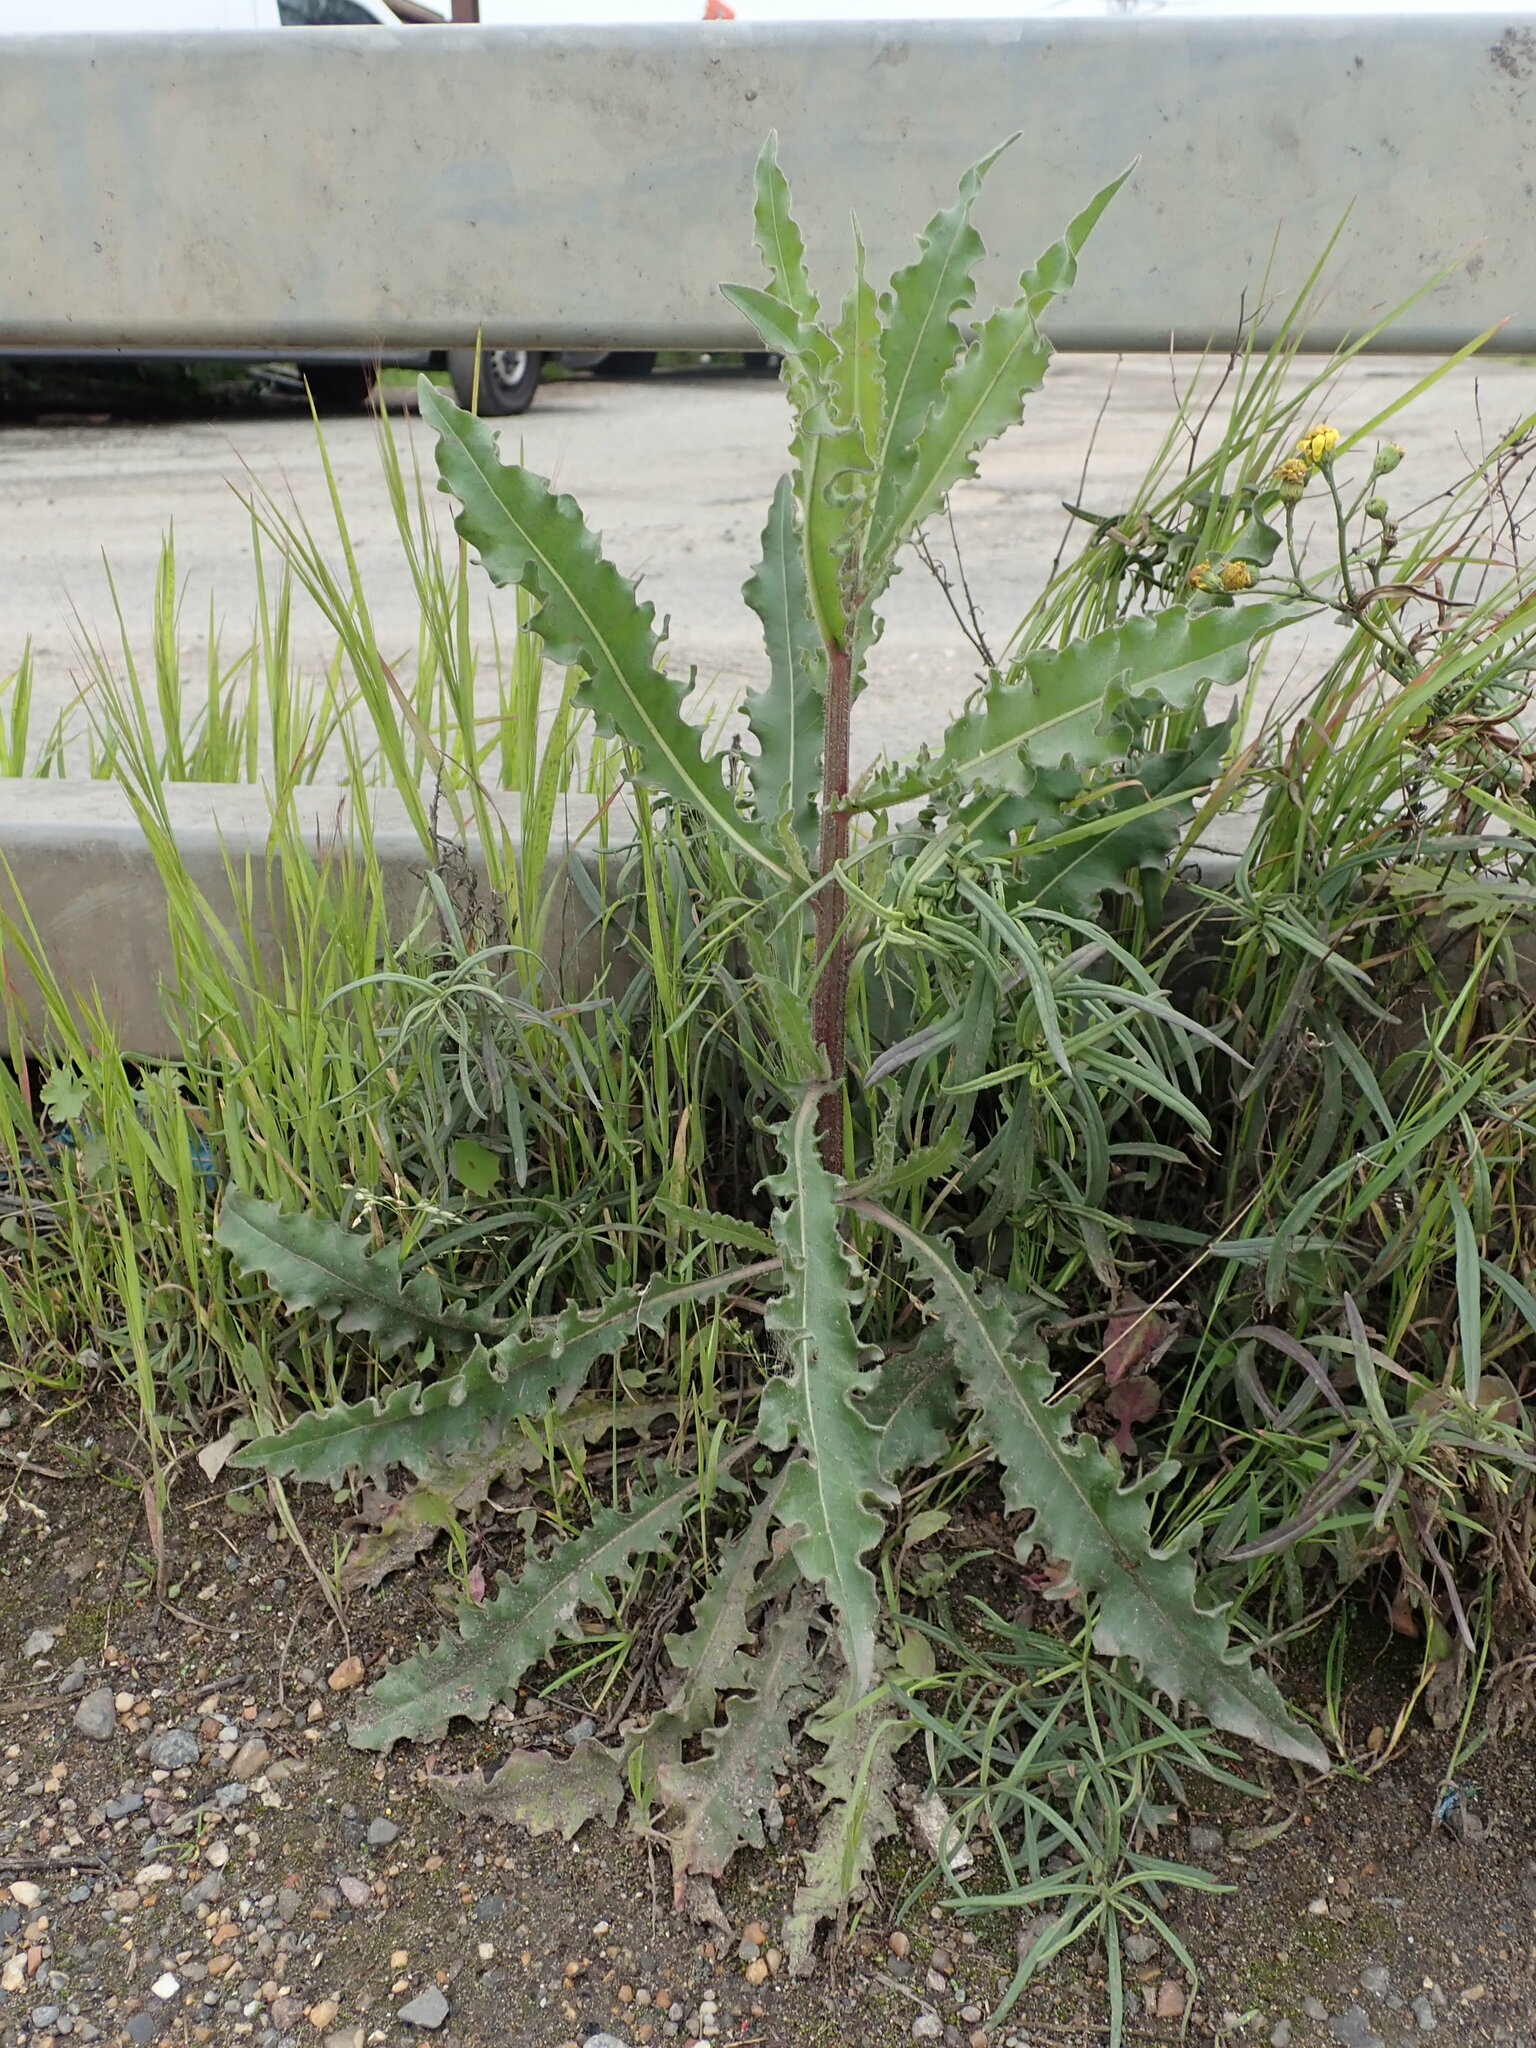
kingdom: Plantae
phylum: Tracheophyta
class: Magnoliopsida
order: Asterales
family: Asteraceae
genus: Picris
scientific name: Picris hieracioides
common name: Hawkweed oxtongue
